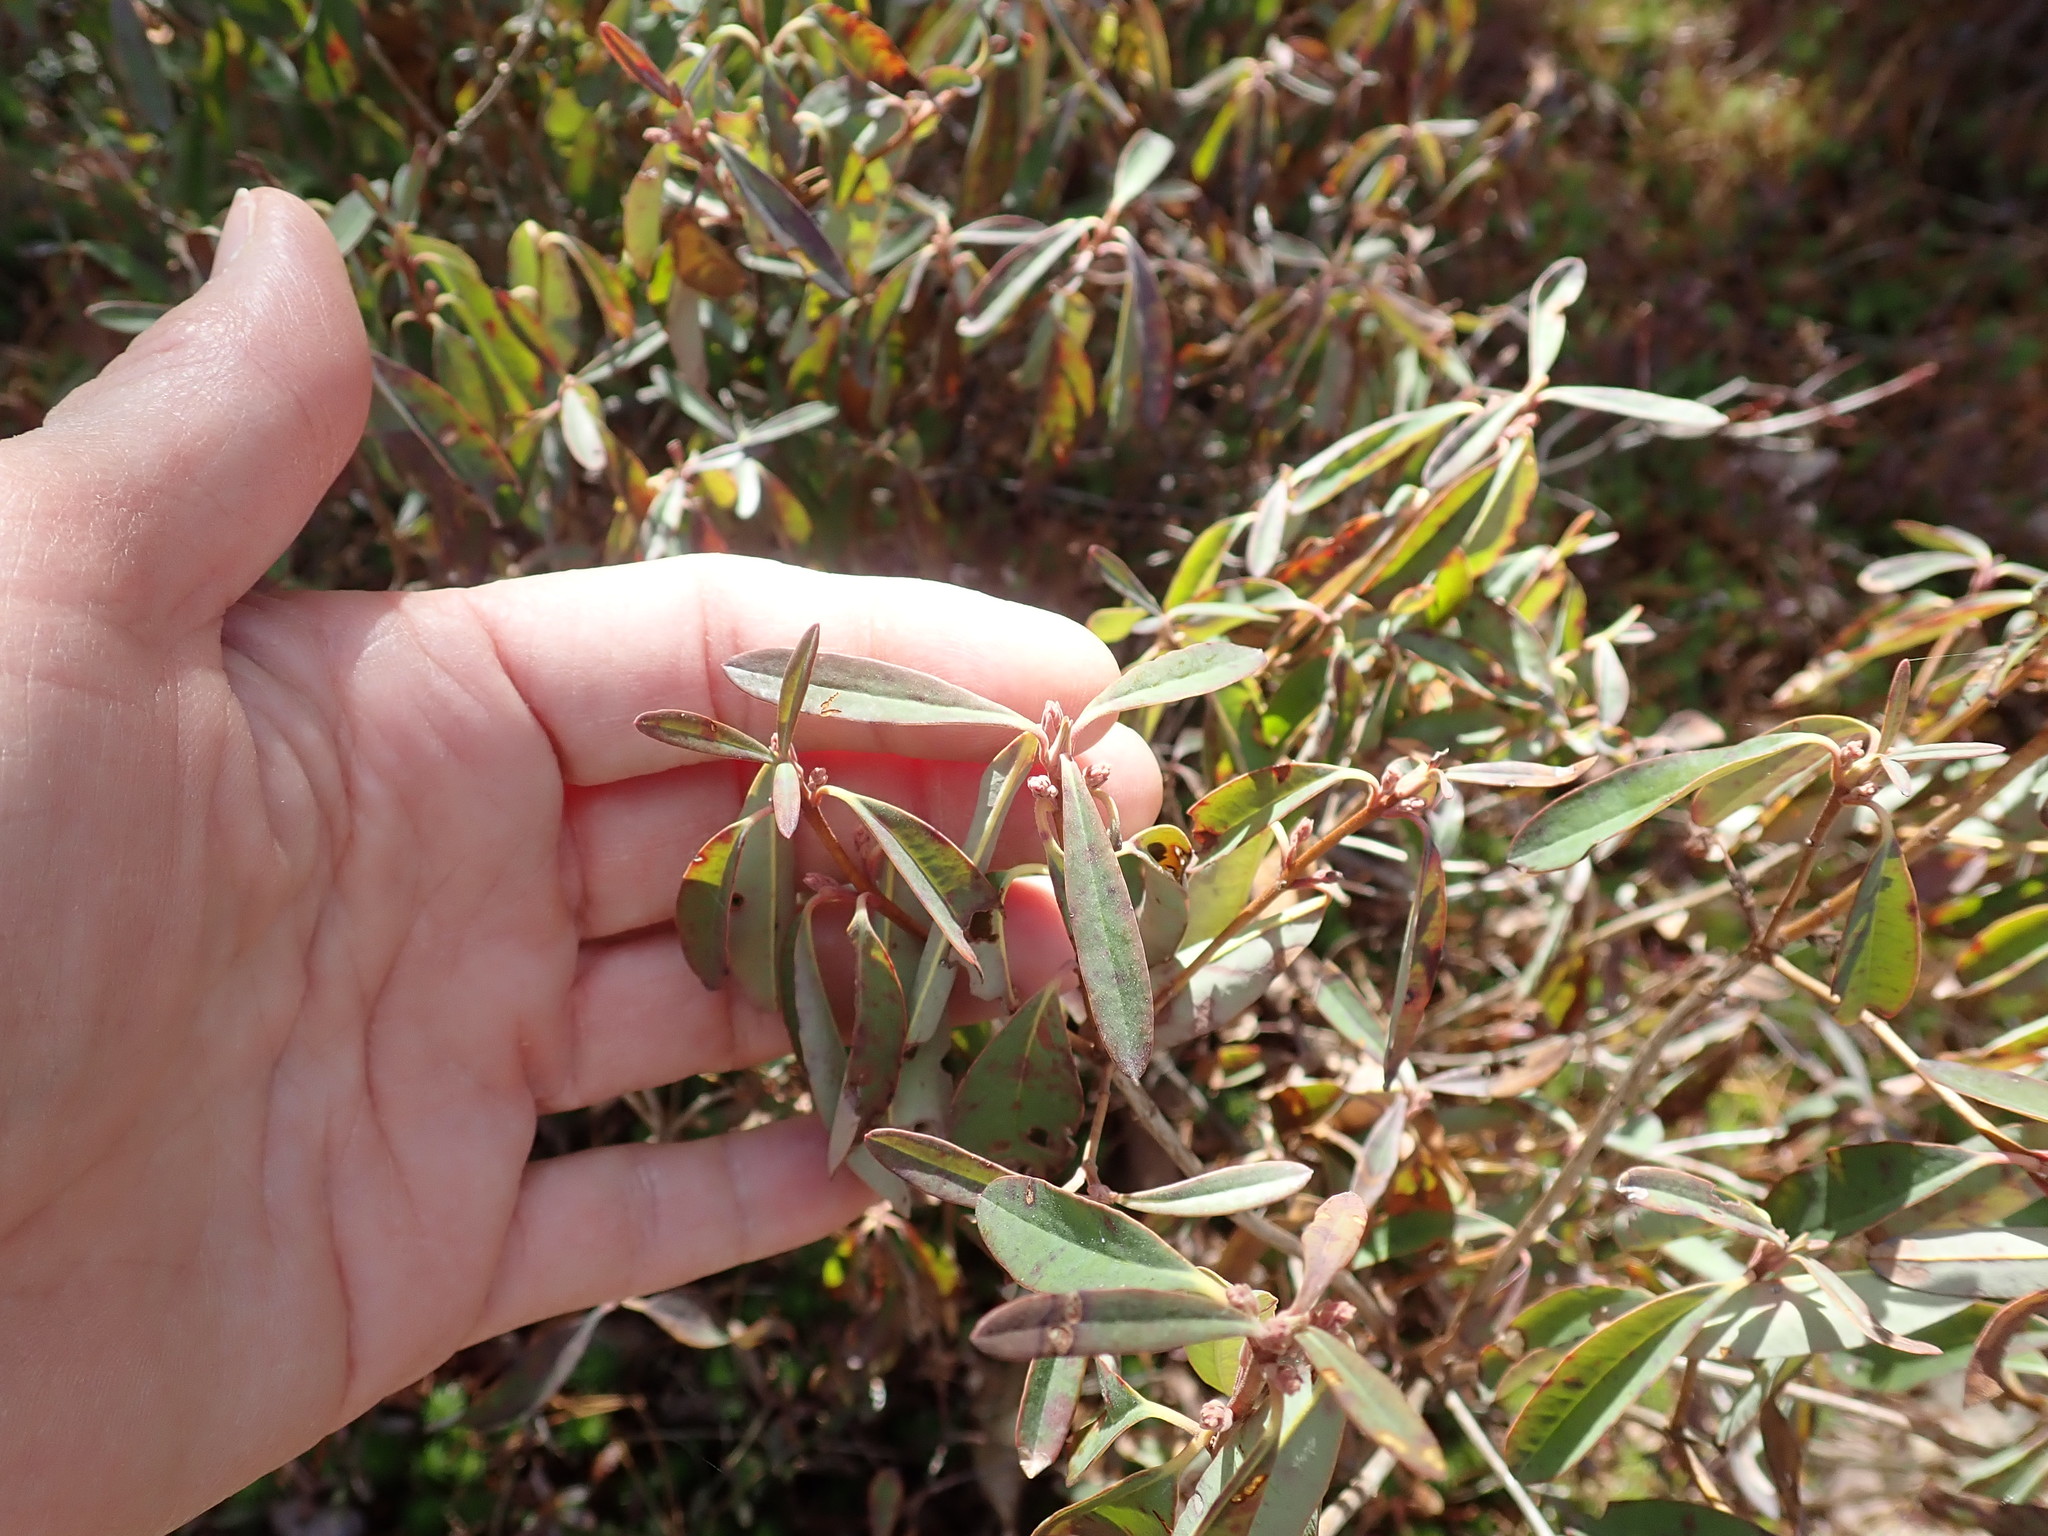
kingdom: Plantae
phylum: Tracheophyta
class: Magnoliopsida
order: Ericales
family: Ericaceae
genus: Kalmia
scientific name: Kalmia angustifolia
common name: Sheep-laurel
